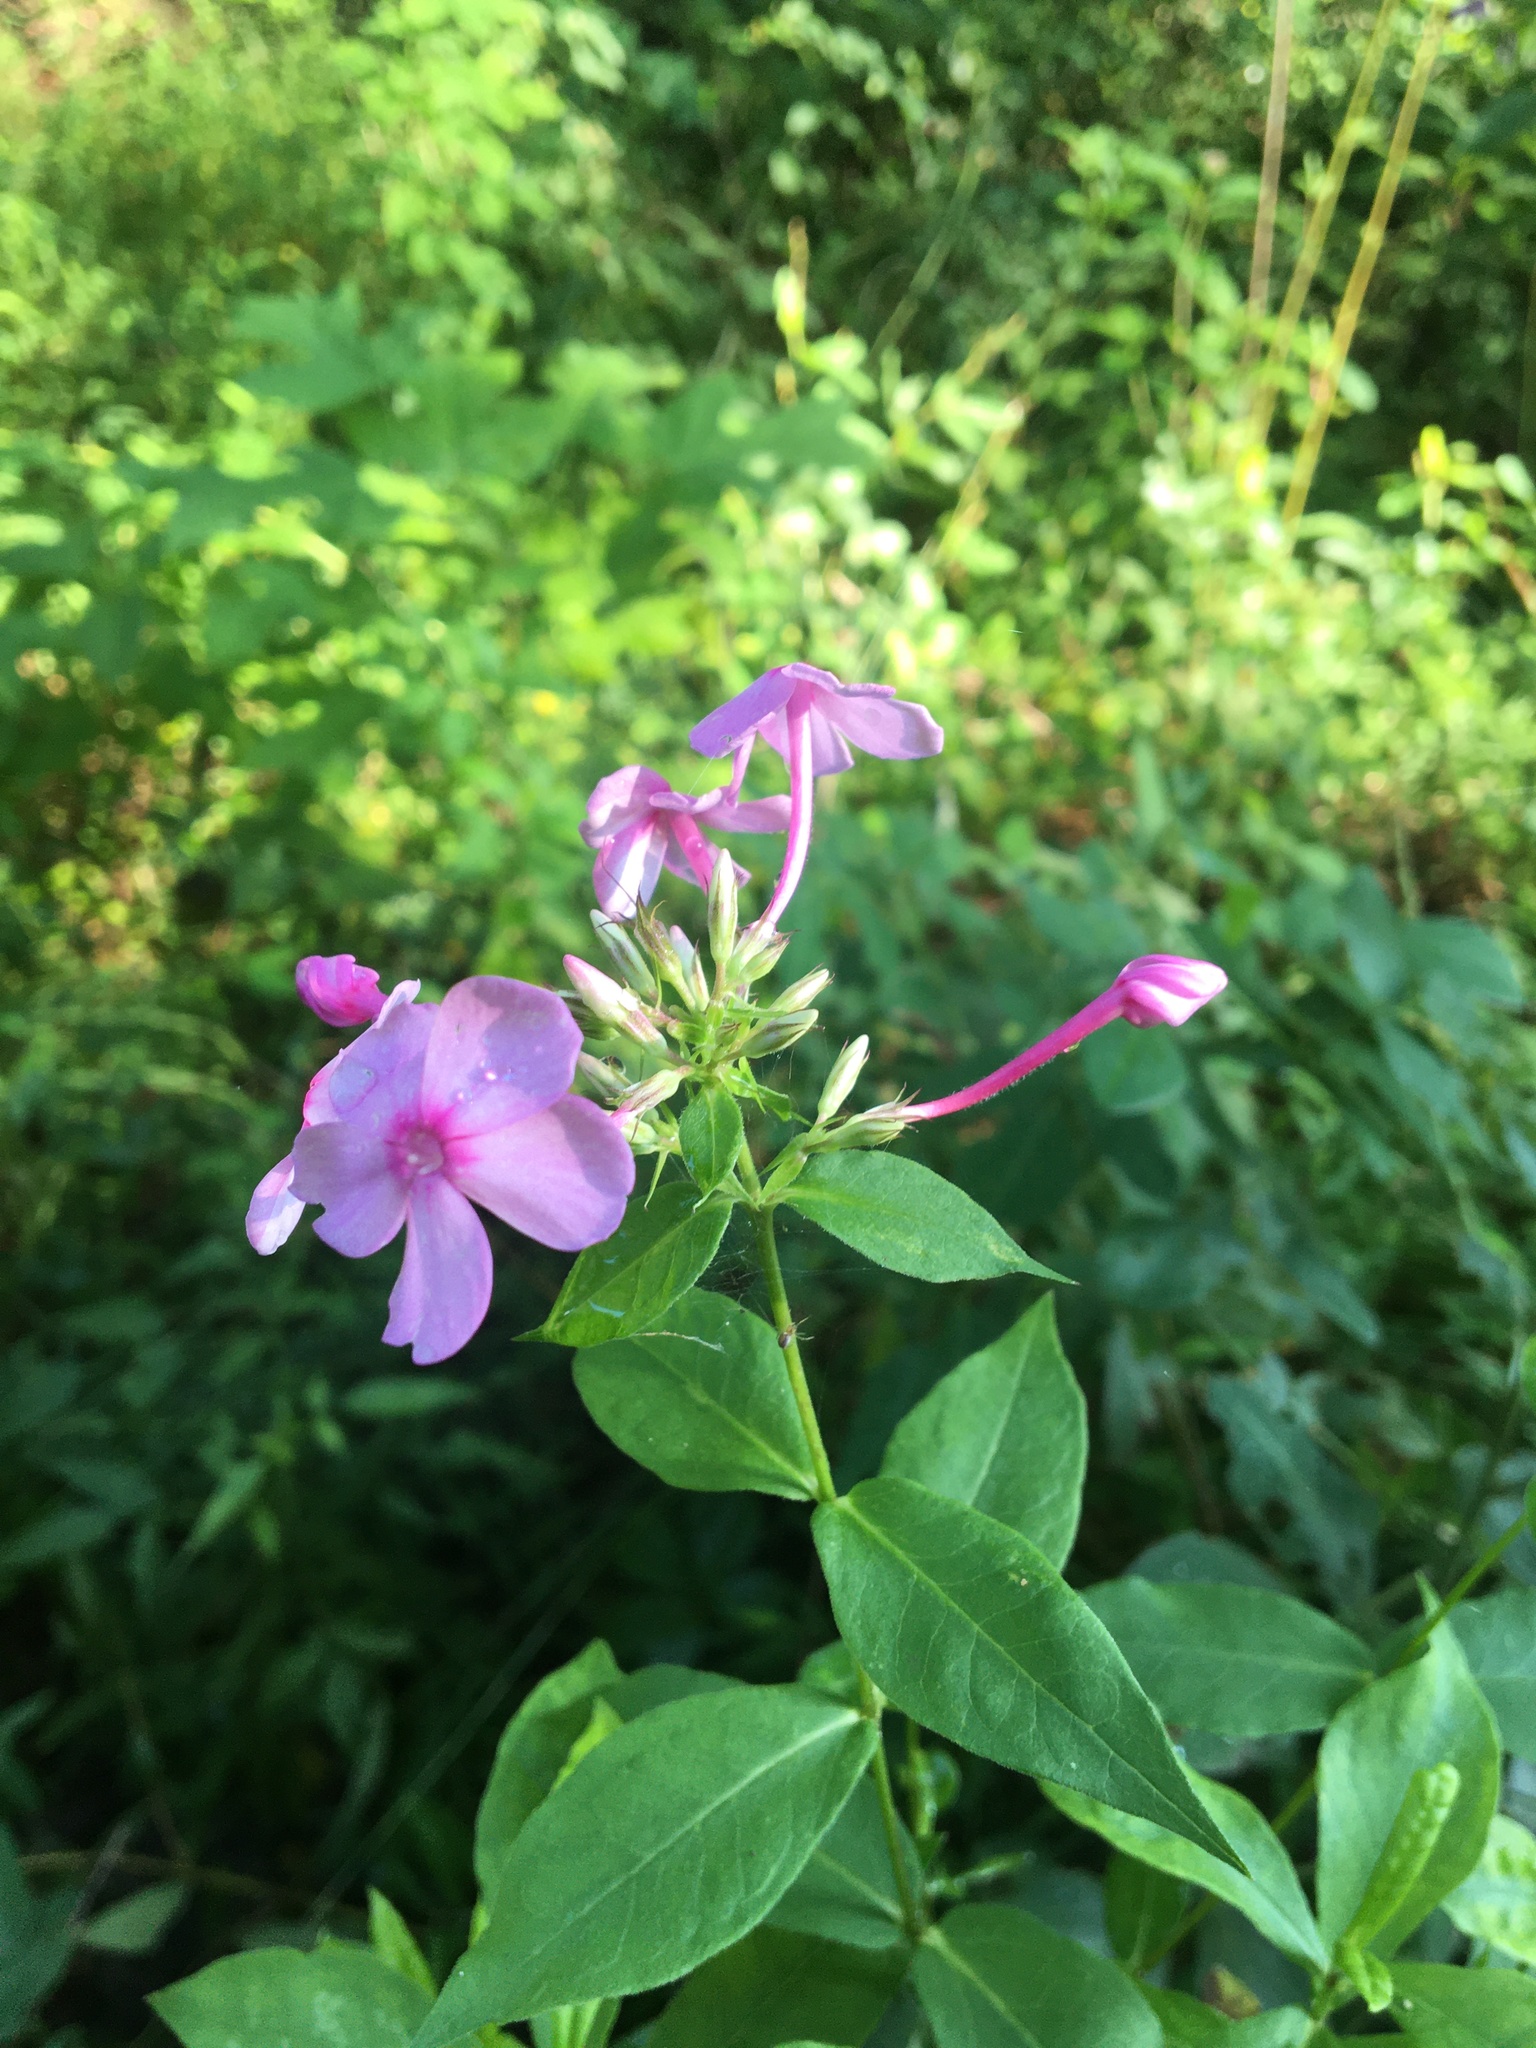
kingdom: Plantae
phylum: Tracheophyta
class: Magnoliopsida
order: Ericales
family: Polemoniaceae
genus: Phlox
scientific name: Phlox paniculata
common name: Fall phlox
